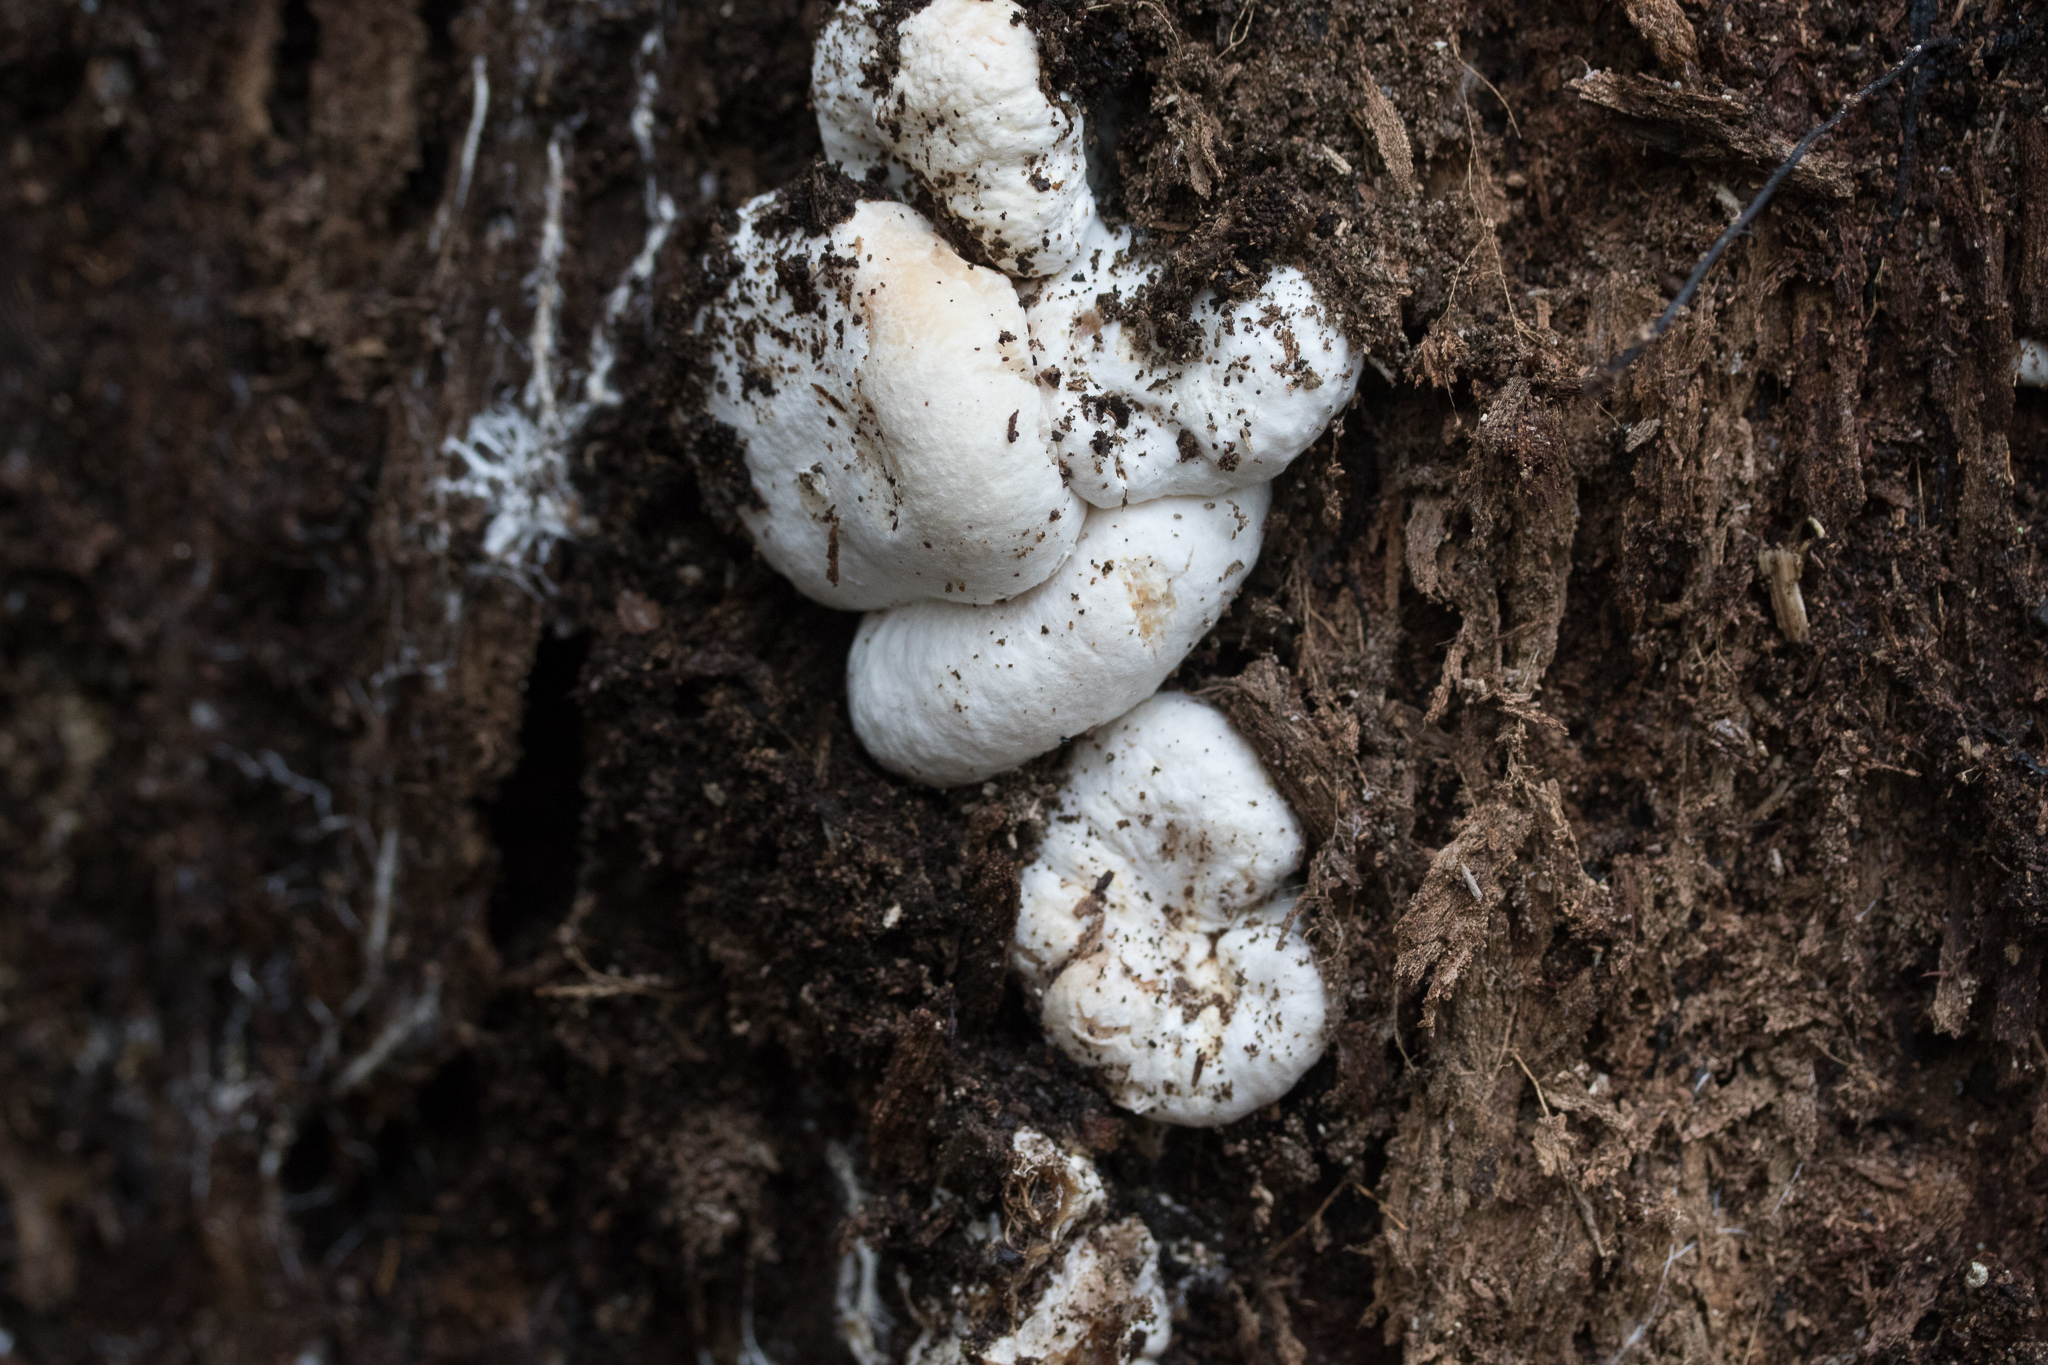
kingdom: Fungi
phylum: Basidiomycota
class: Agaricomycetes
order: Agaricales
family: Entolomataceae
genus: Entoloma
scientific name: Entoloma abortivum
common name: Aborted entoloma
